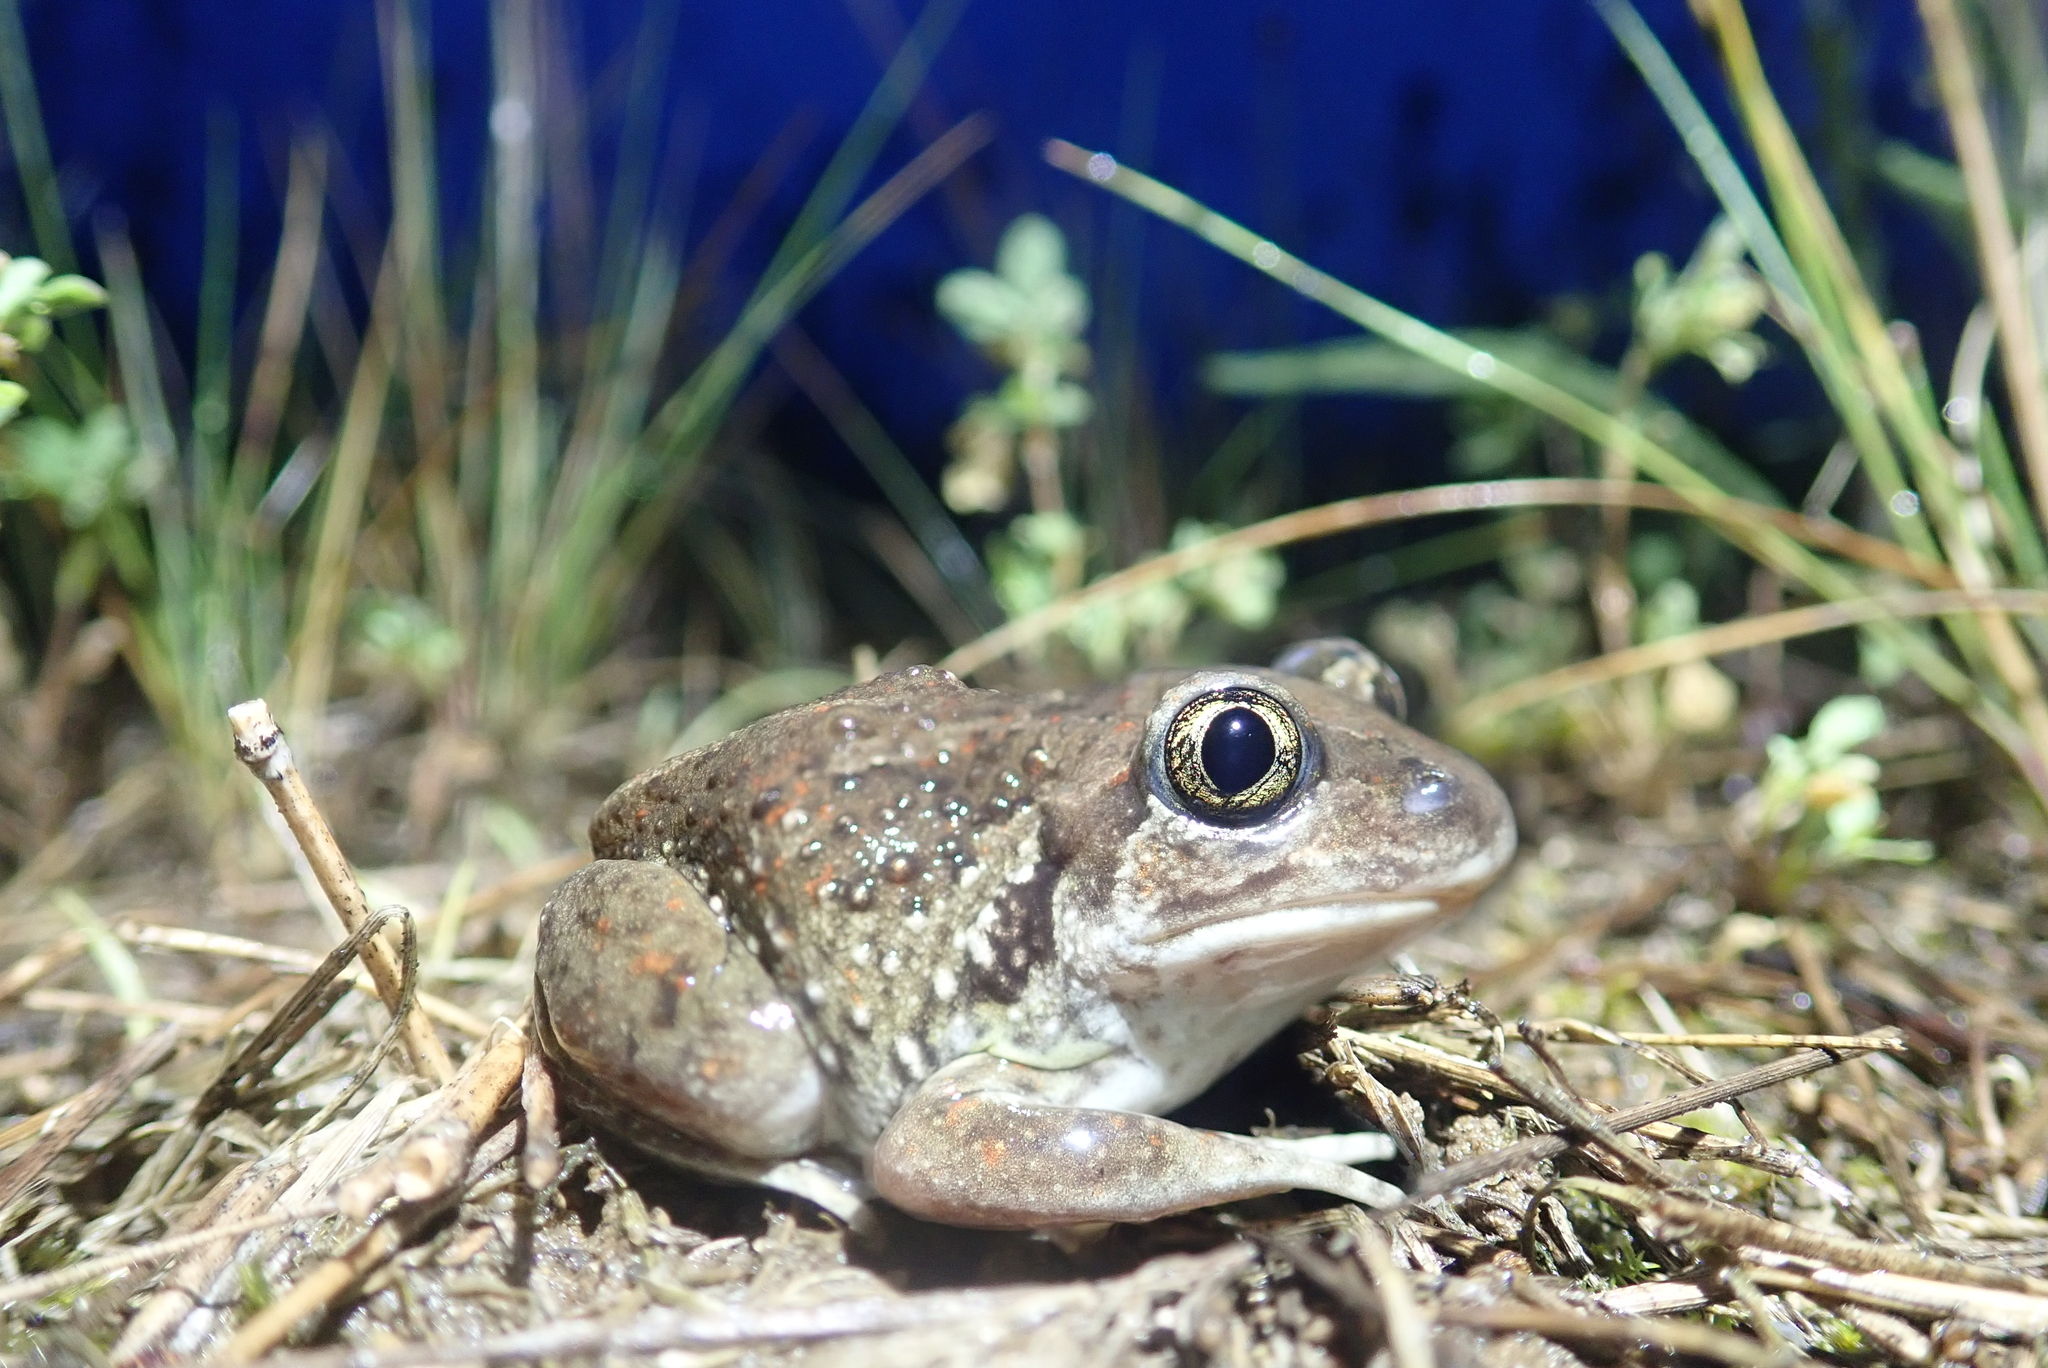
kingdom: Animalia
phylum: Chordata
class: Amphibia
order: Anura
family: Pelobatidae
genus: Pelobates
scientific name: Pelobates fuscus
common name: Common eurasian spadefoot toad
